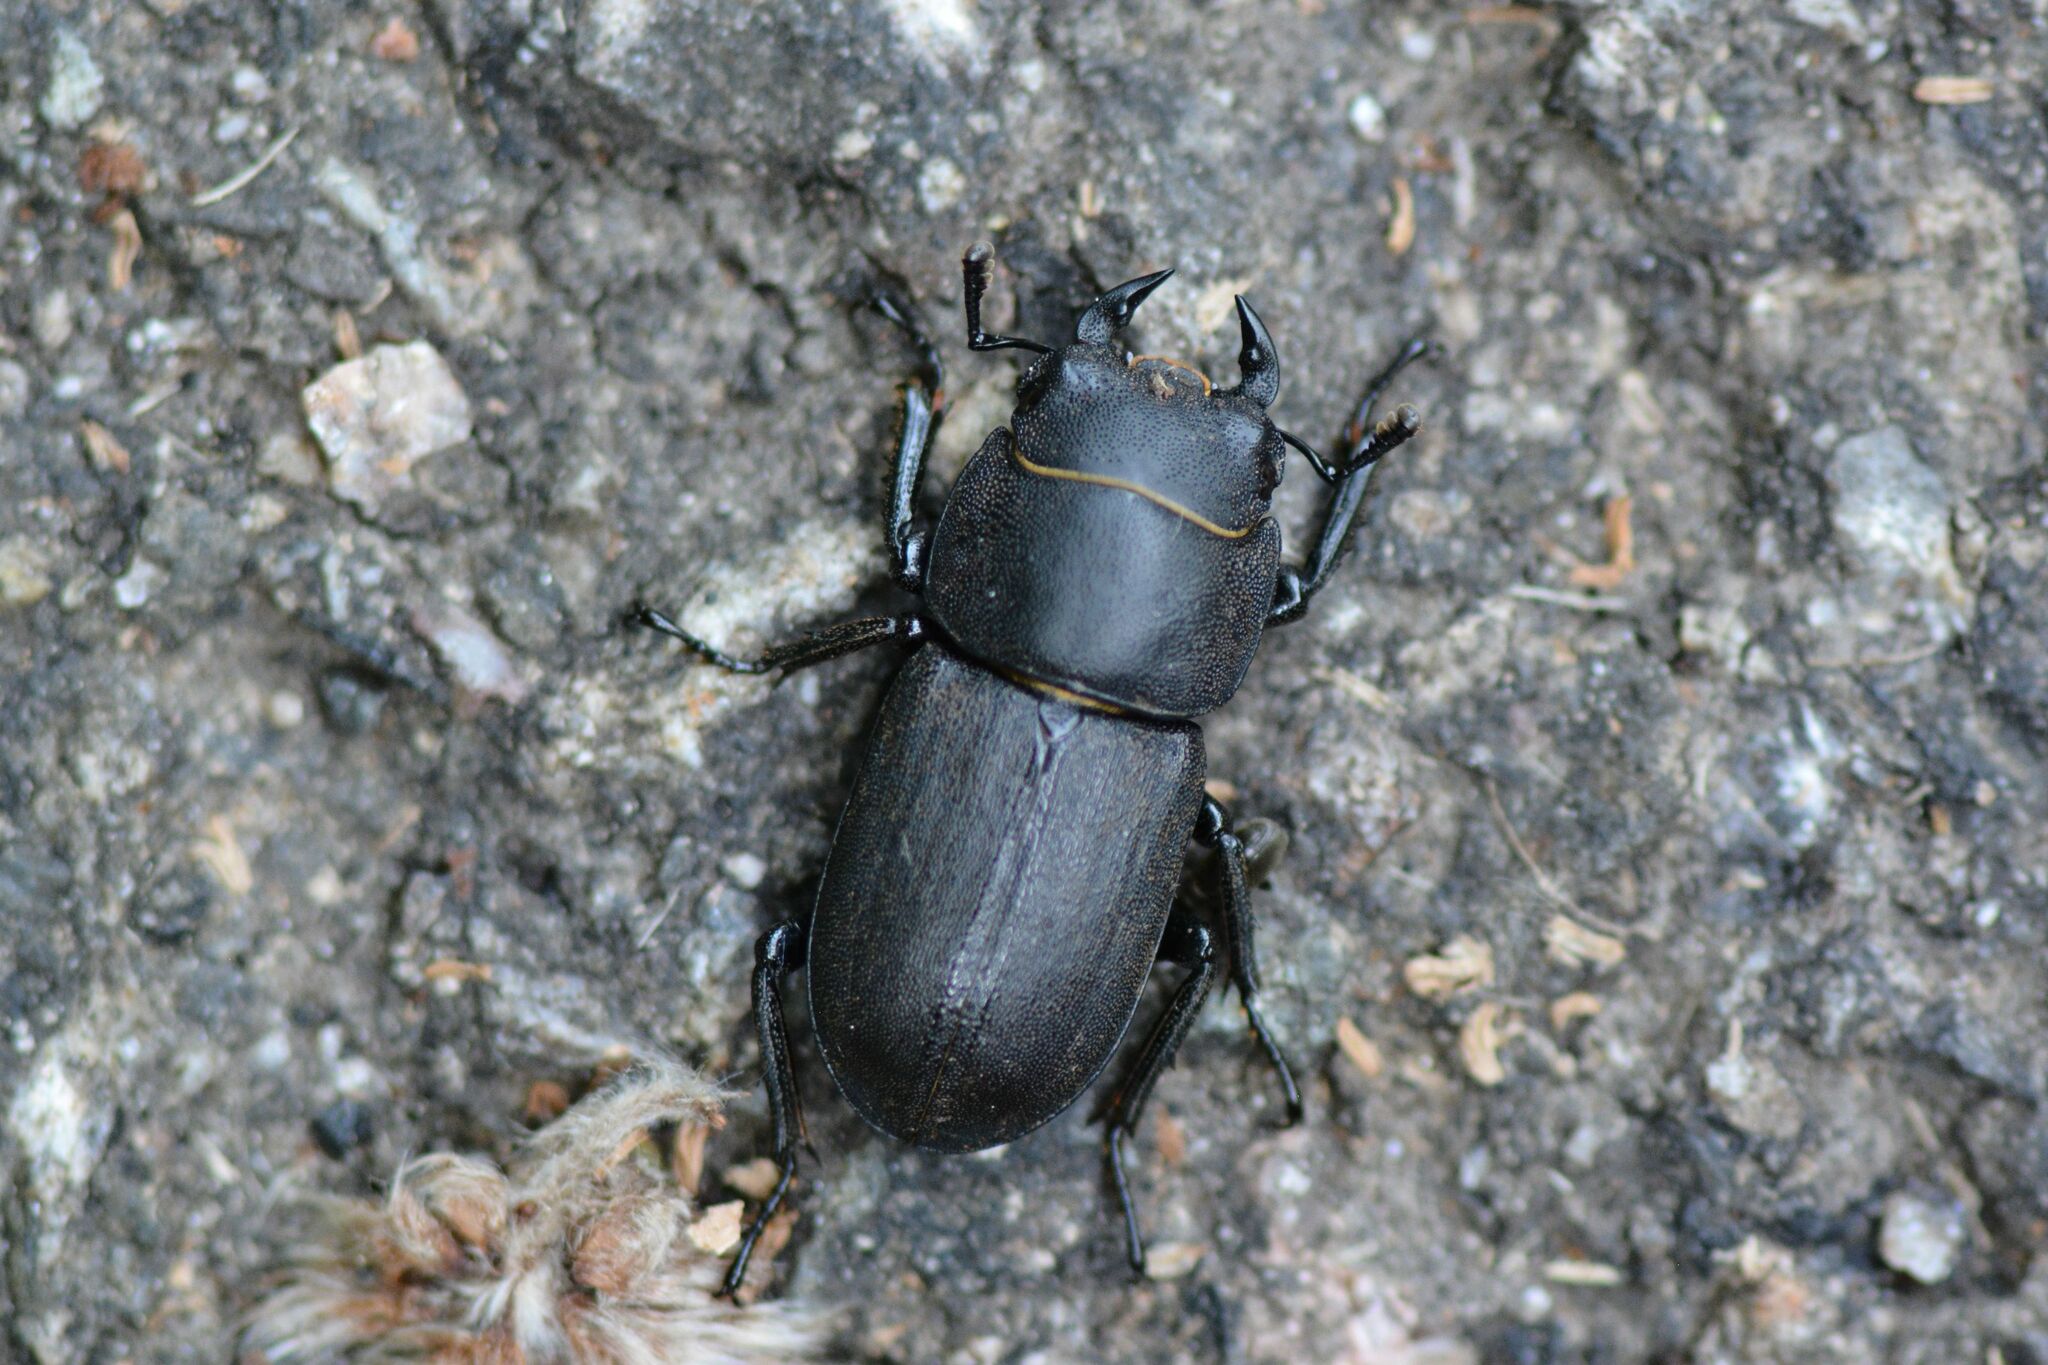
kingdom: Animalia
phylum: Arthropoda
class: Insecta
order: Coleoptera
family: Lucanidae
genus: Dorcus
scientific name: Dorcus parallelipipedus
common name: Lesser stag beetle
